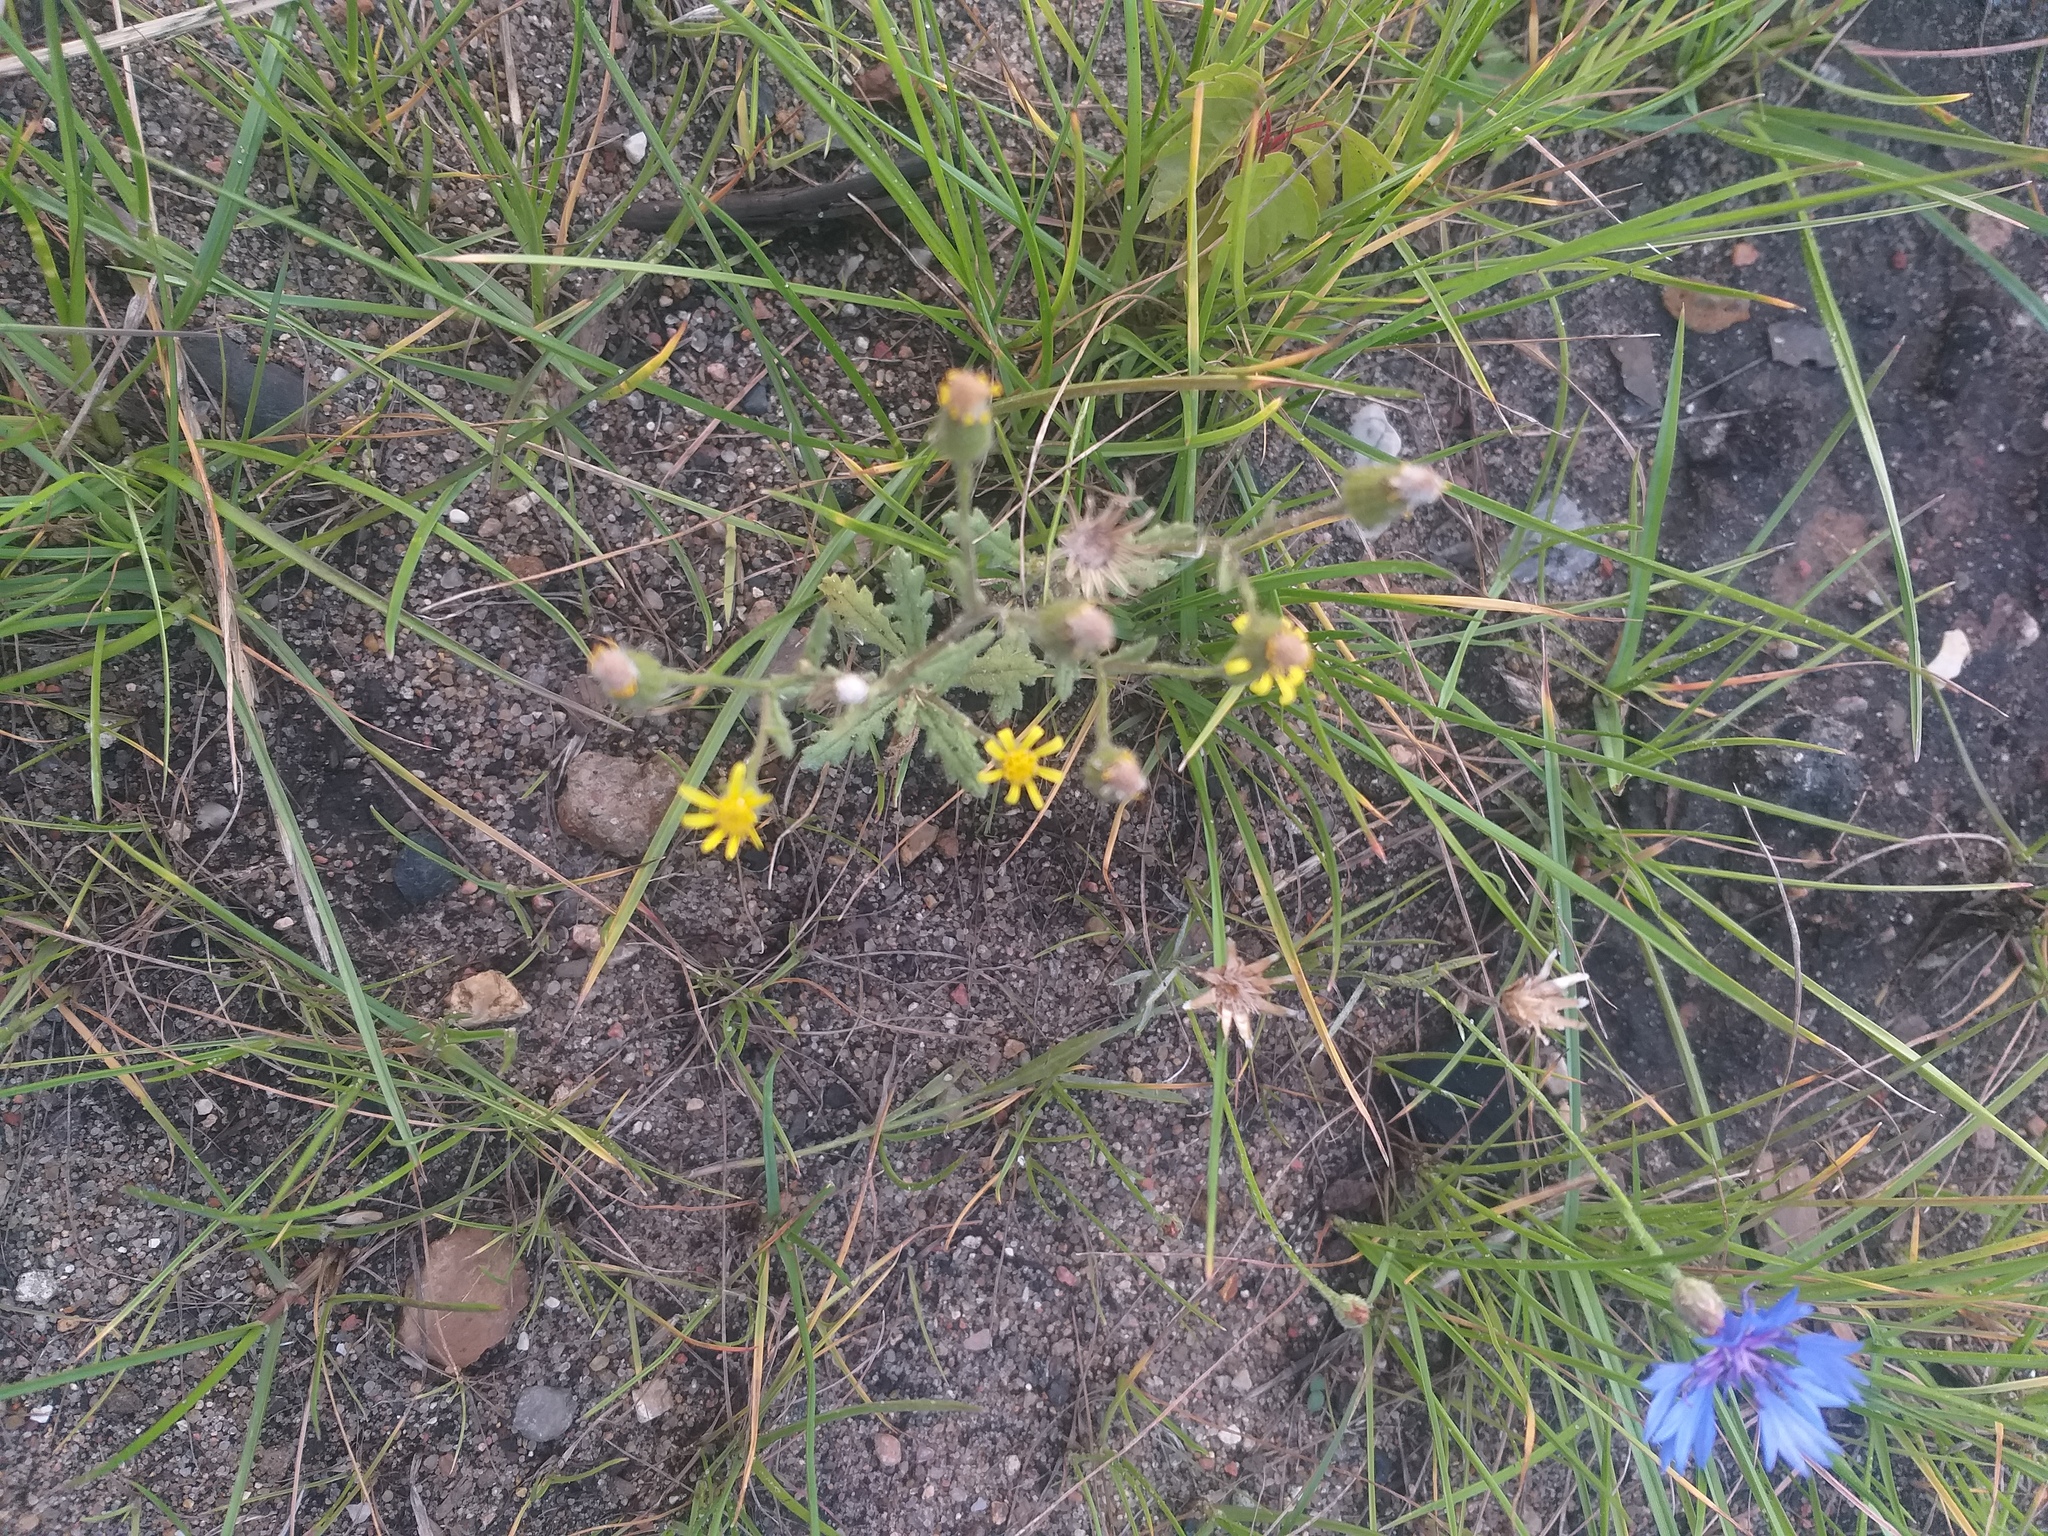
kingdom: Plantae
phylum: Tracheophyta
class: Magnoliopsida
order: Asterales
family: Asteraceae
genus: Senecio
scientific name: Senecio viscosus
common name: Sticky groundsel
